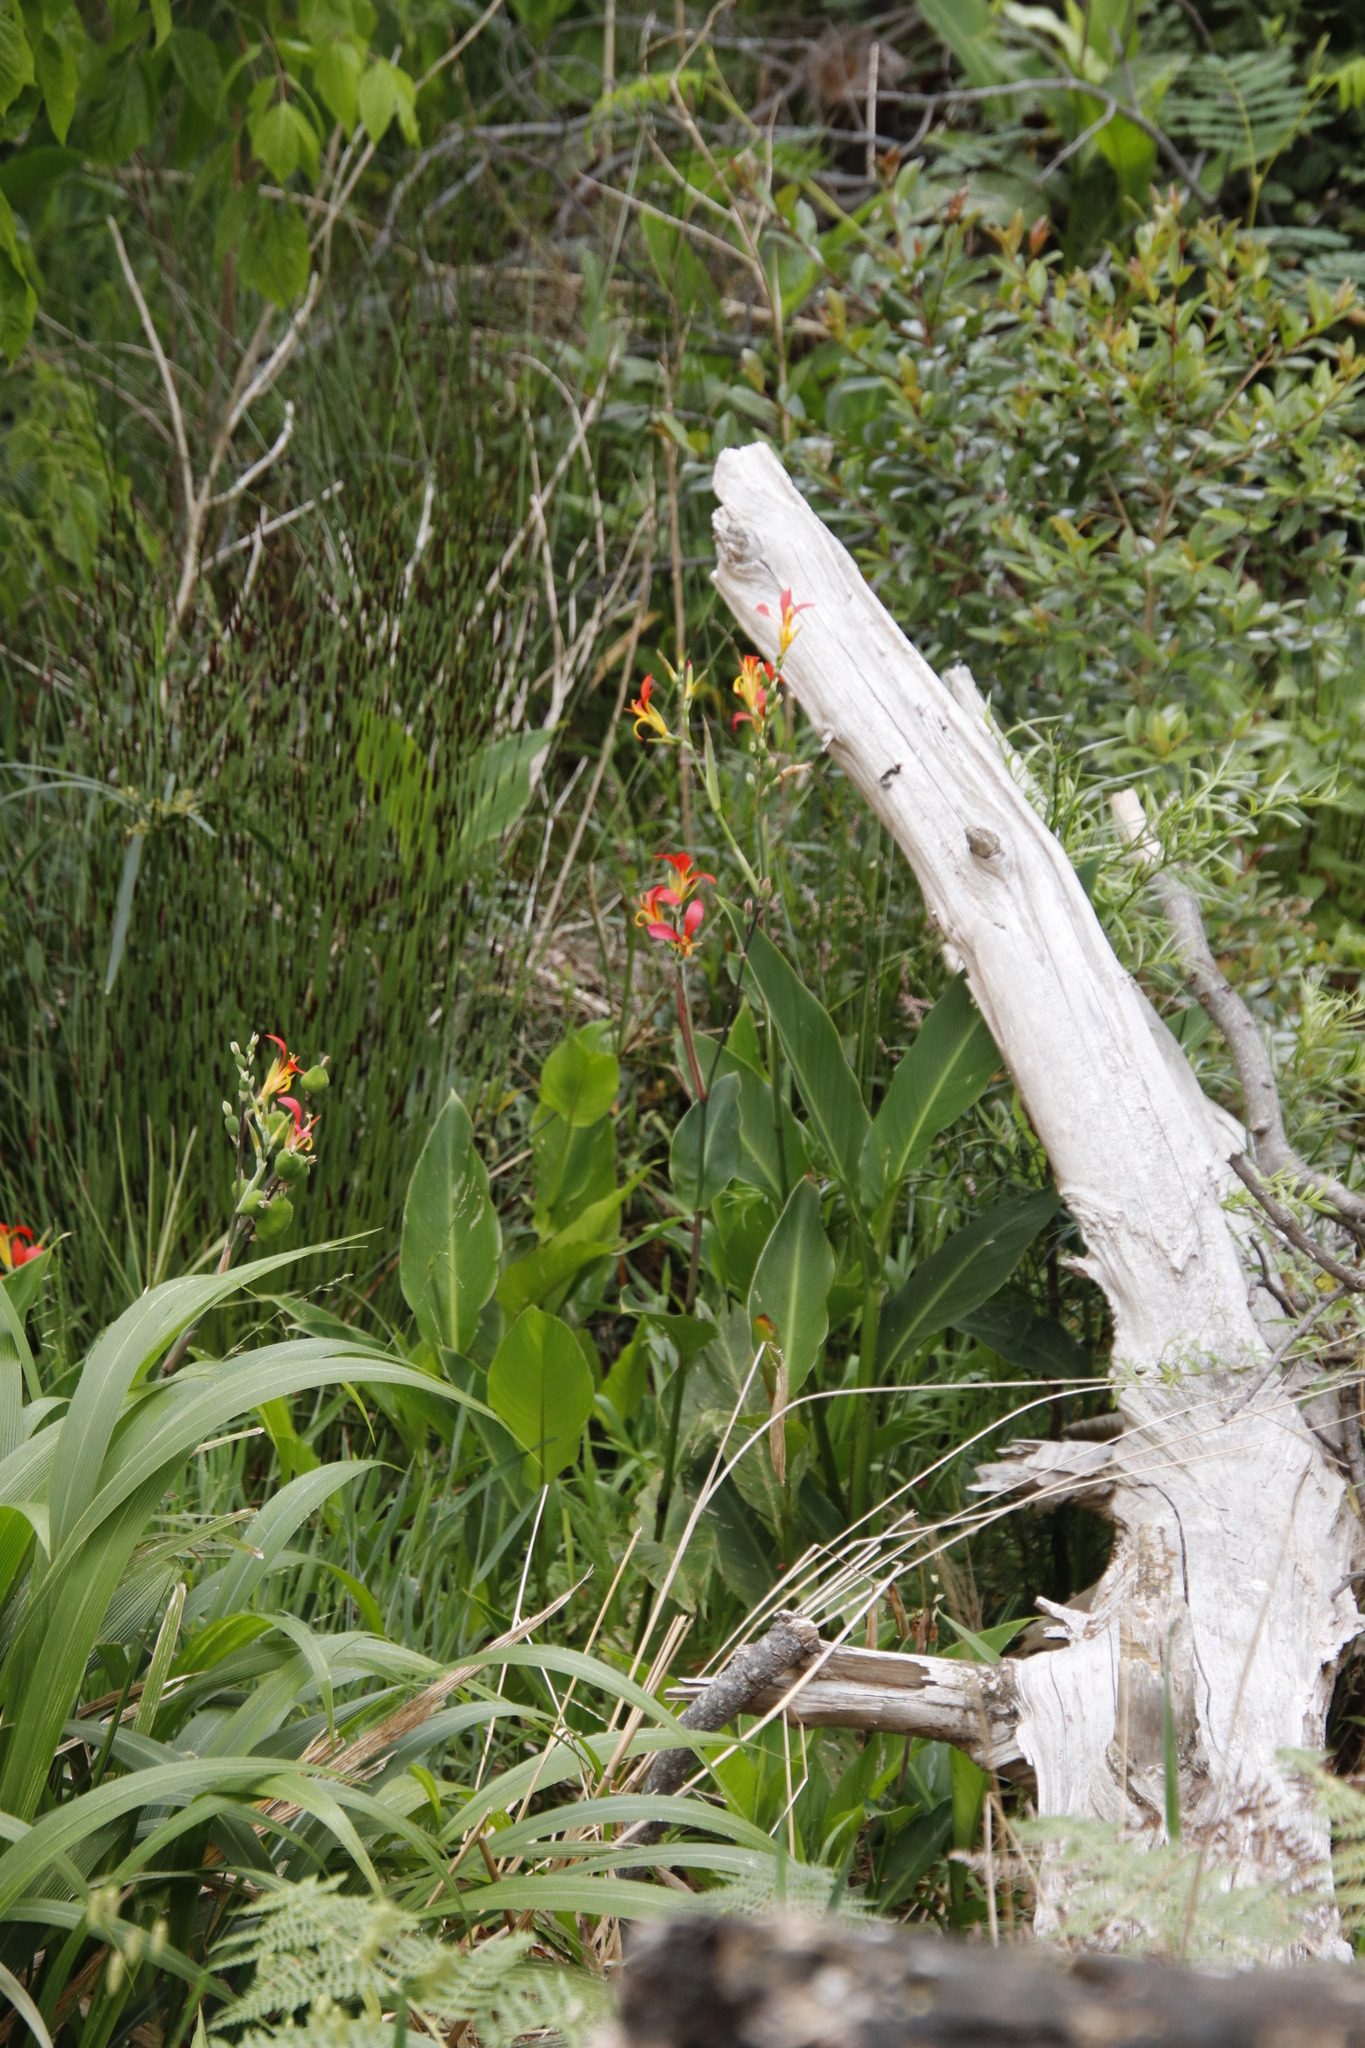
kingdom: Plantae
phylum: Tracheophyta
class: Liliopsida
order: Zingiberales
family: Cannaceae
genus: Canna
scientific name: Canna indica
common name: Indian shot
